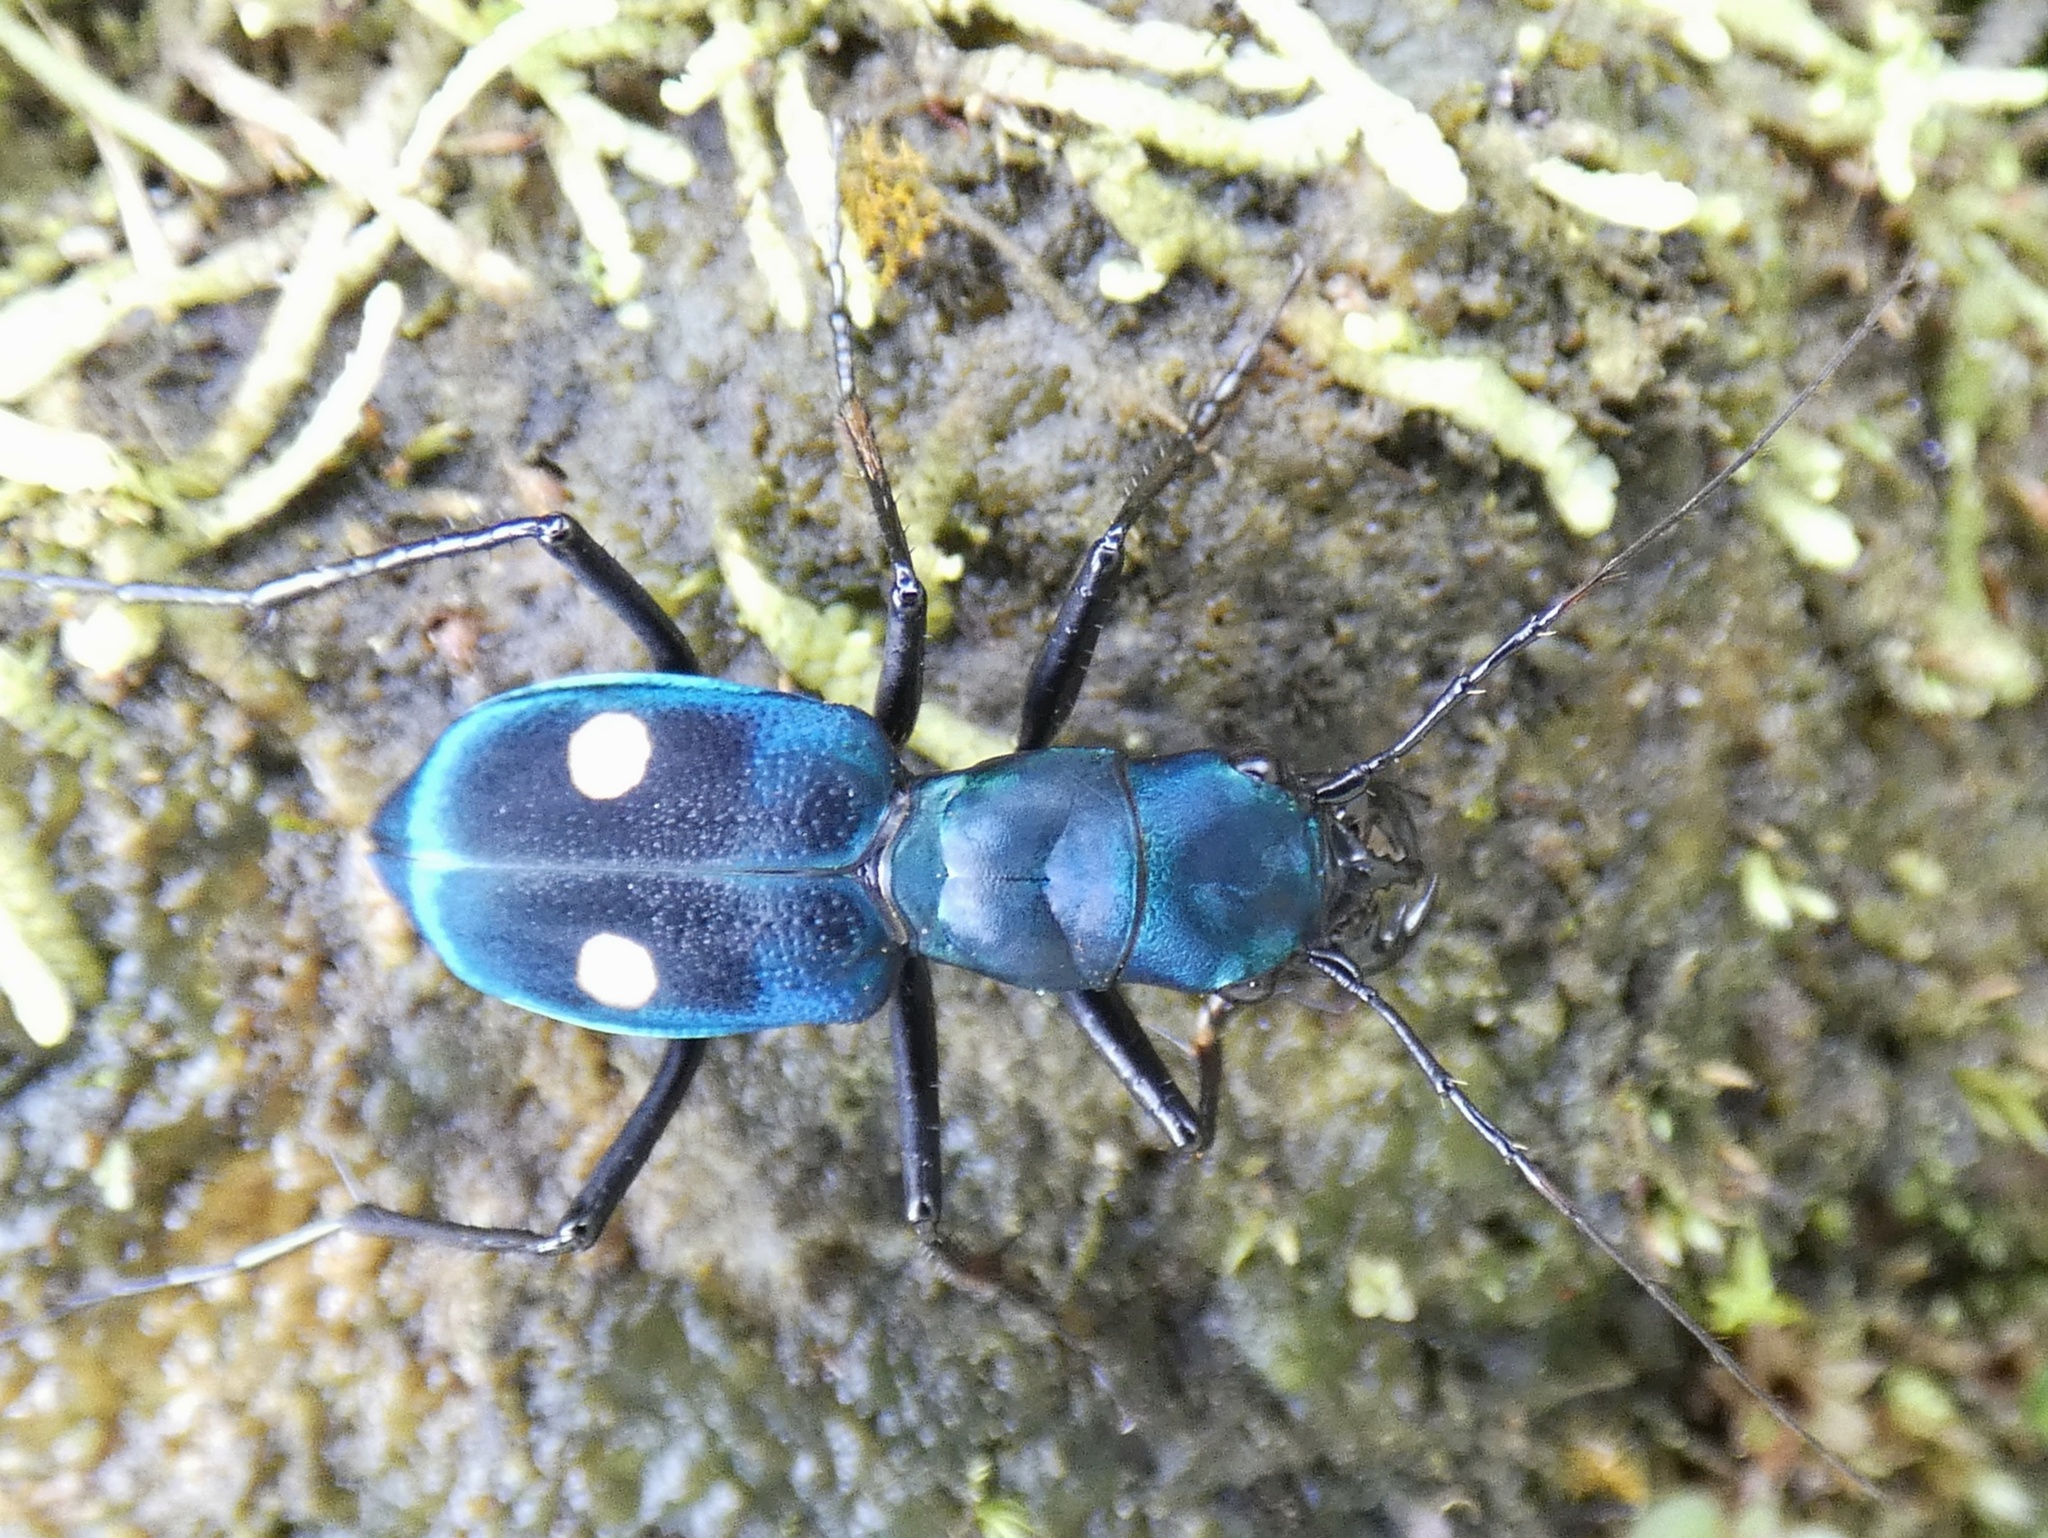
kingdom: Animalia
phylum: Arthropoda
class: Insecta
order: Coleoptera
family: Carabidae
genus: Pseudoxycheila
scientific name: Pseudoxycheila tarsalis
